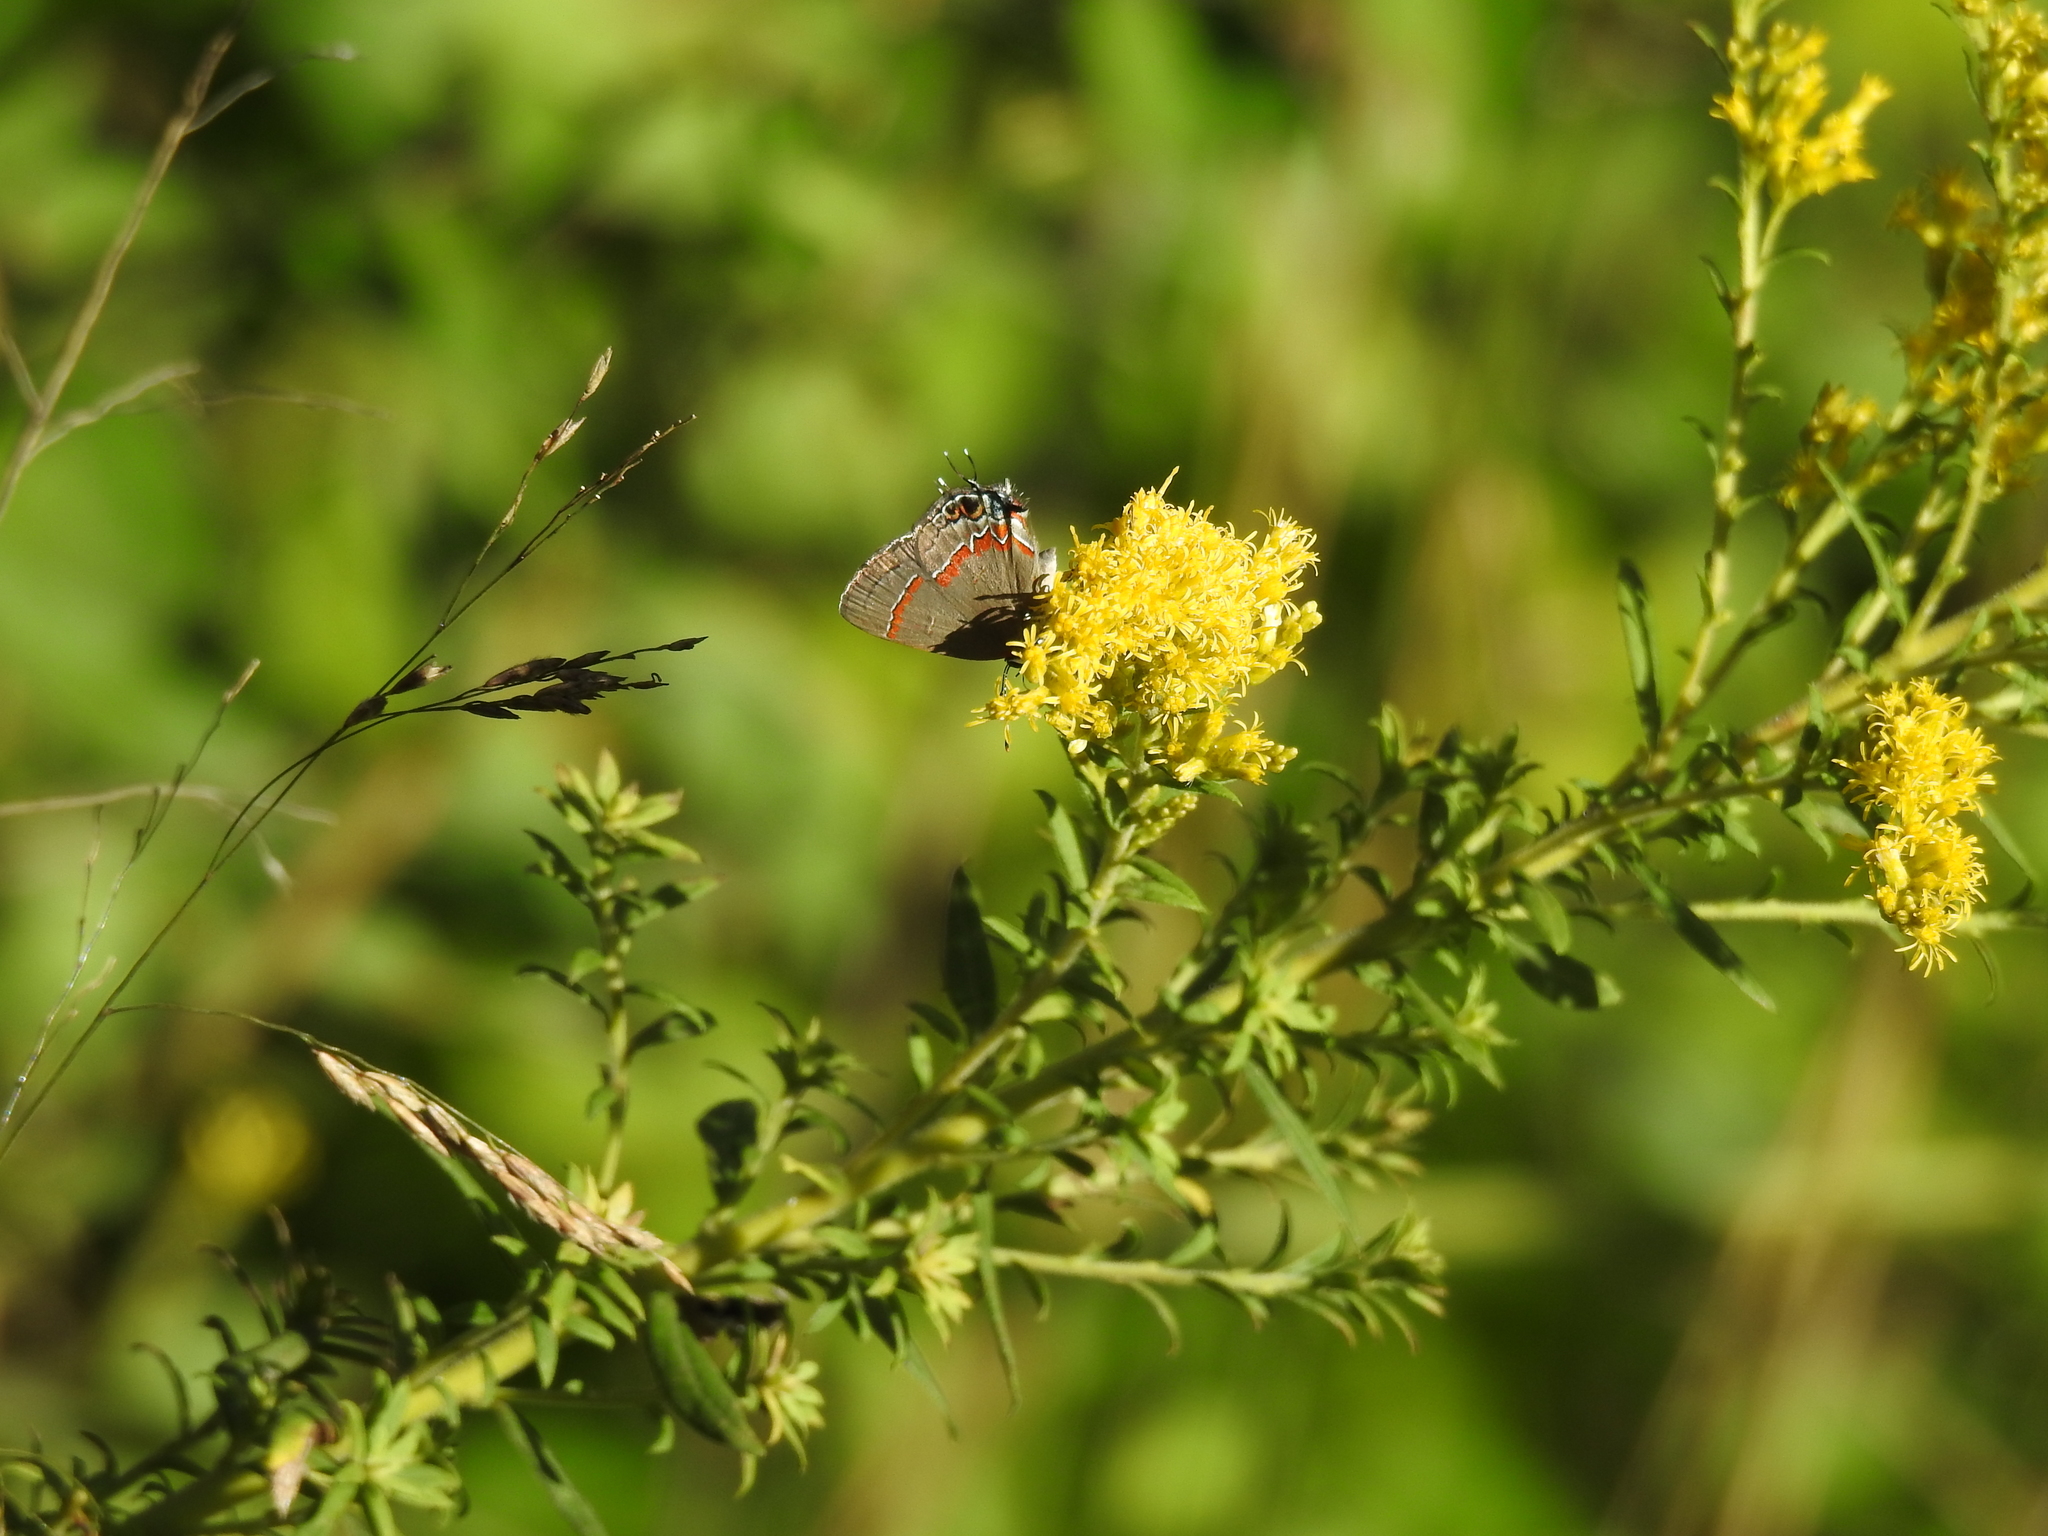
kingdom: Animalia
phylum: Arthropoda
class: Insecta
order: Lepidoptera
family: Lycaenidae
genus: Calycopis
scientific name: Calycopis cecrops
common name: Red-banded hairstreak
